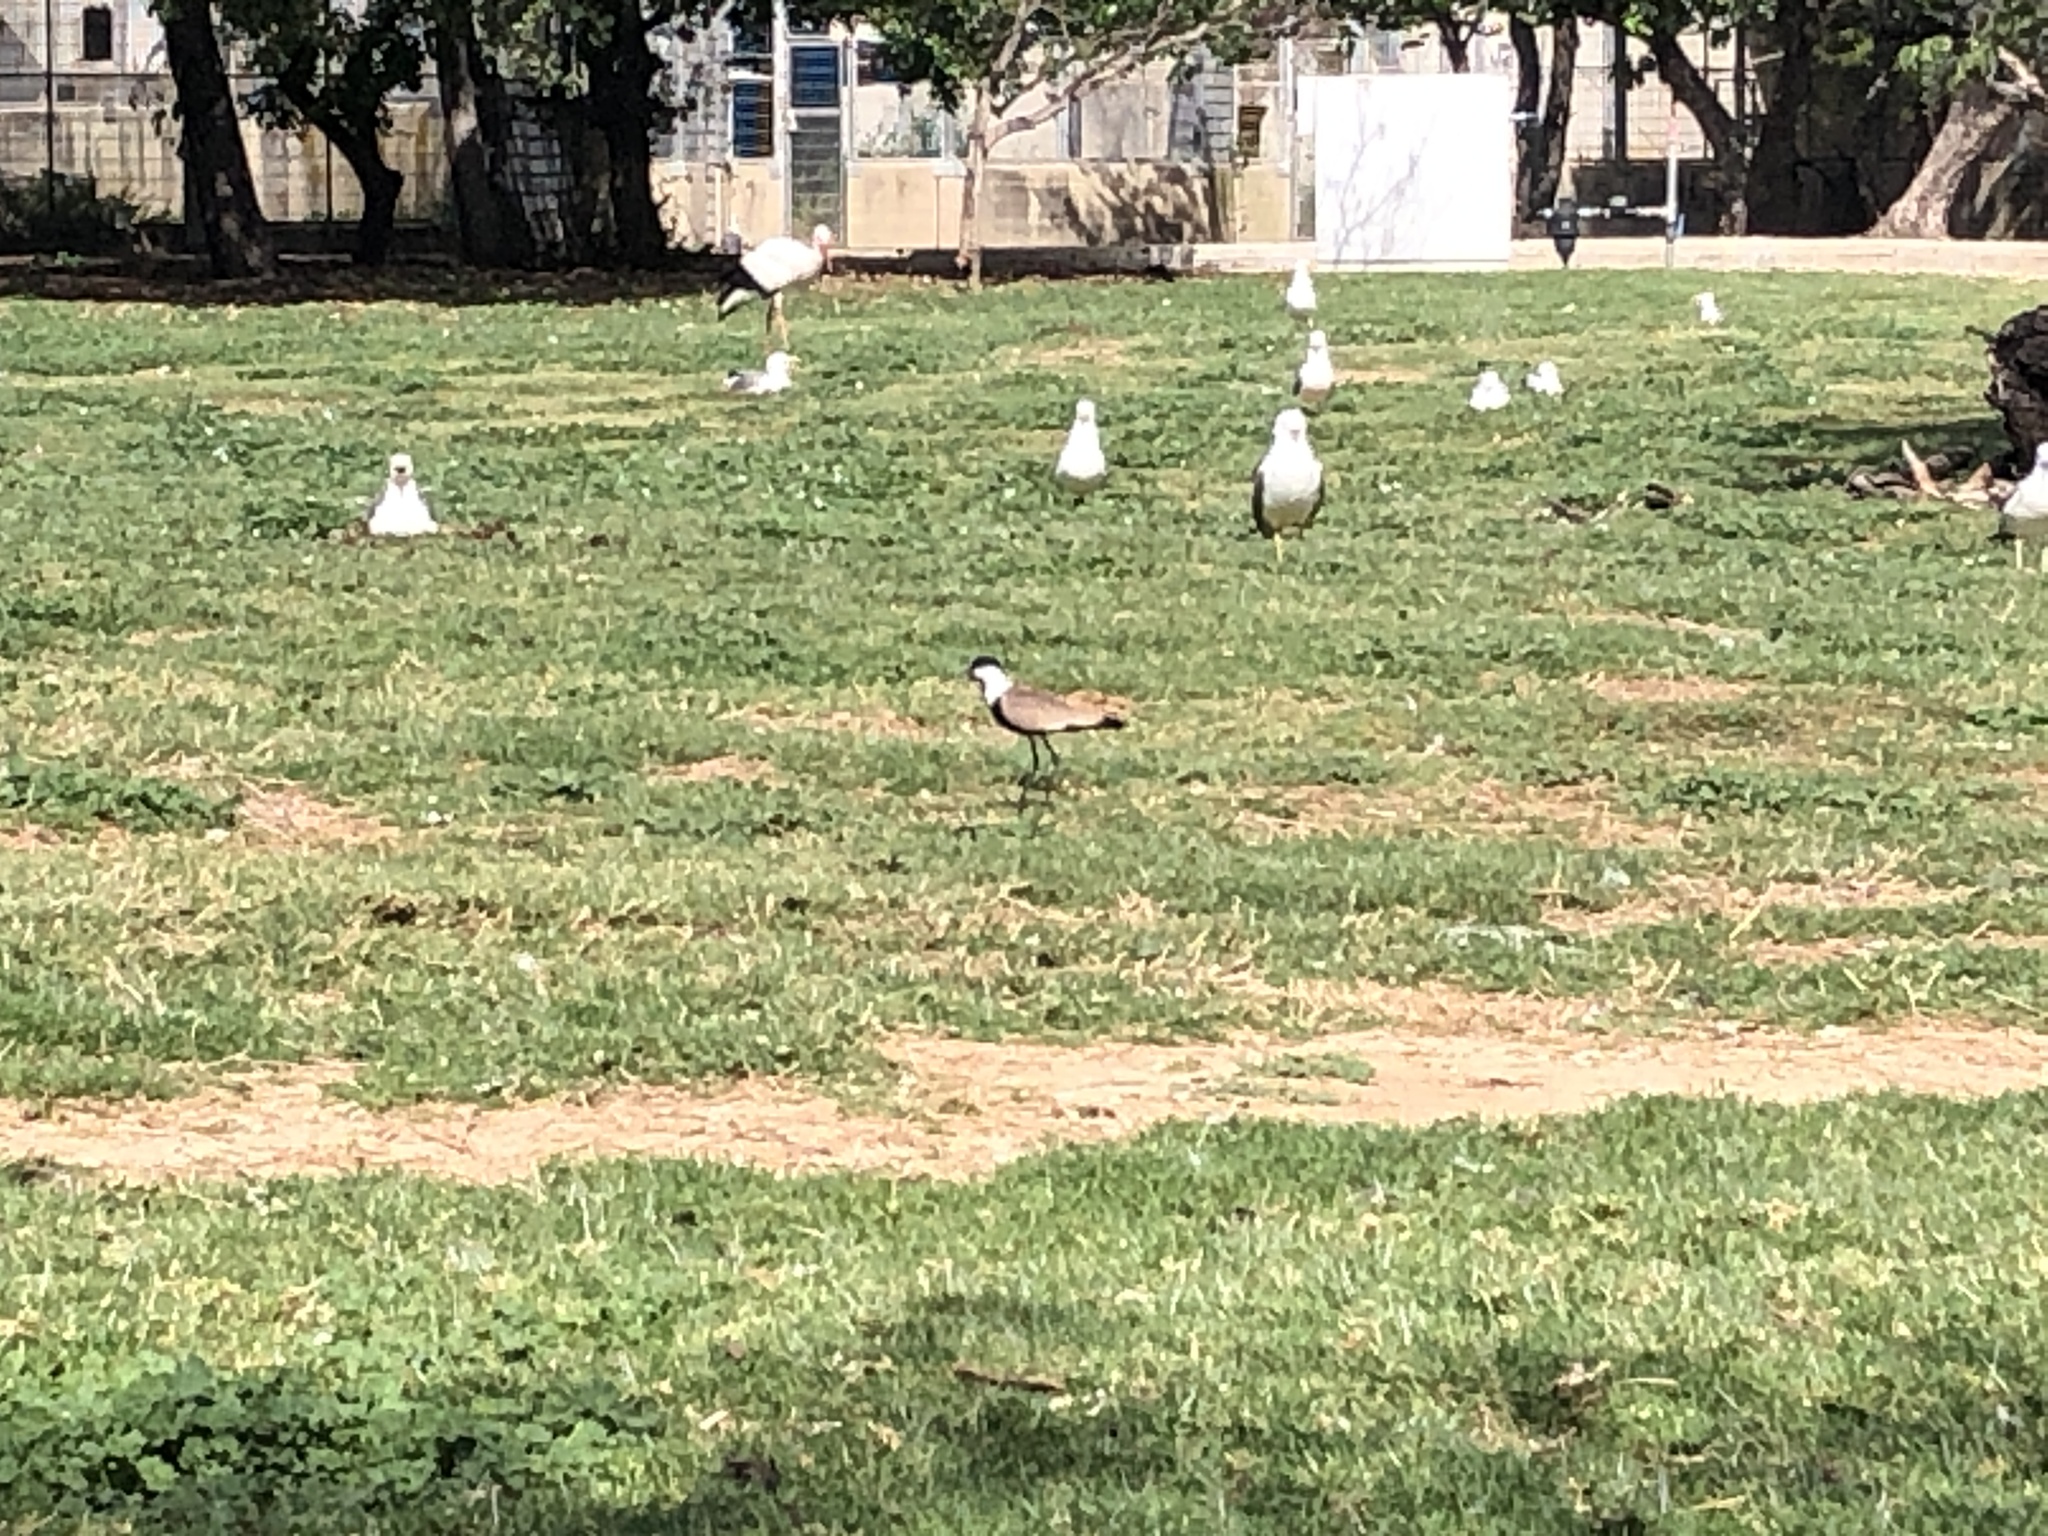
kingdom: Animalia
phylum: Chordata
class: Aves
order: Charadriiformes
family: Charadriidae
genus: Vanellus
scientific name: Vanellus spinosus
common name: Spur-winged lapwing
